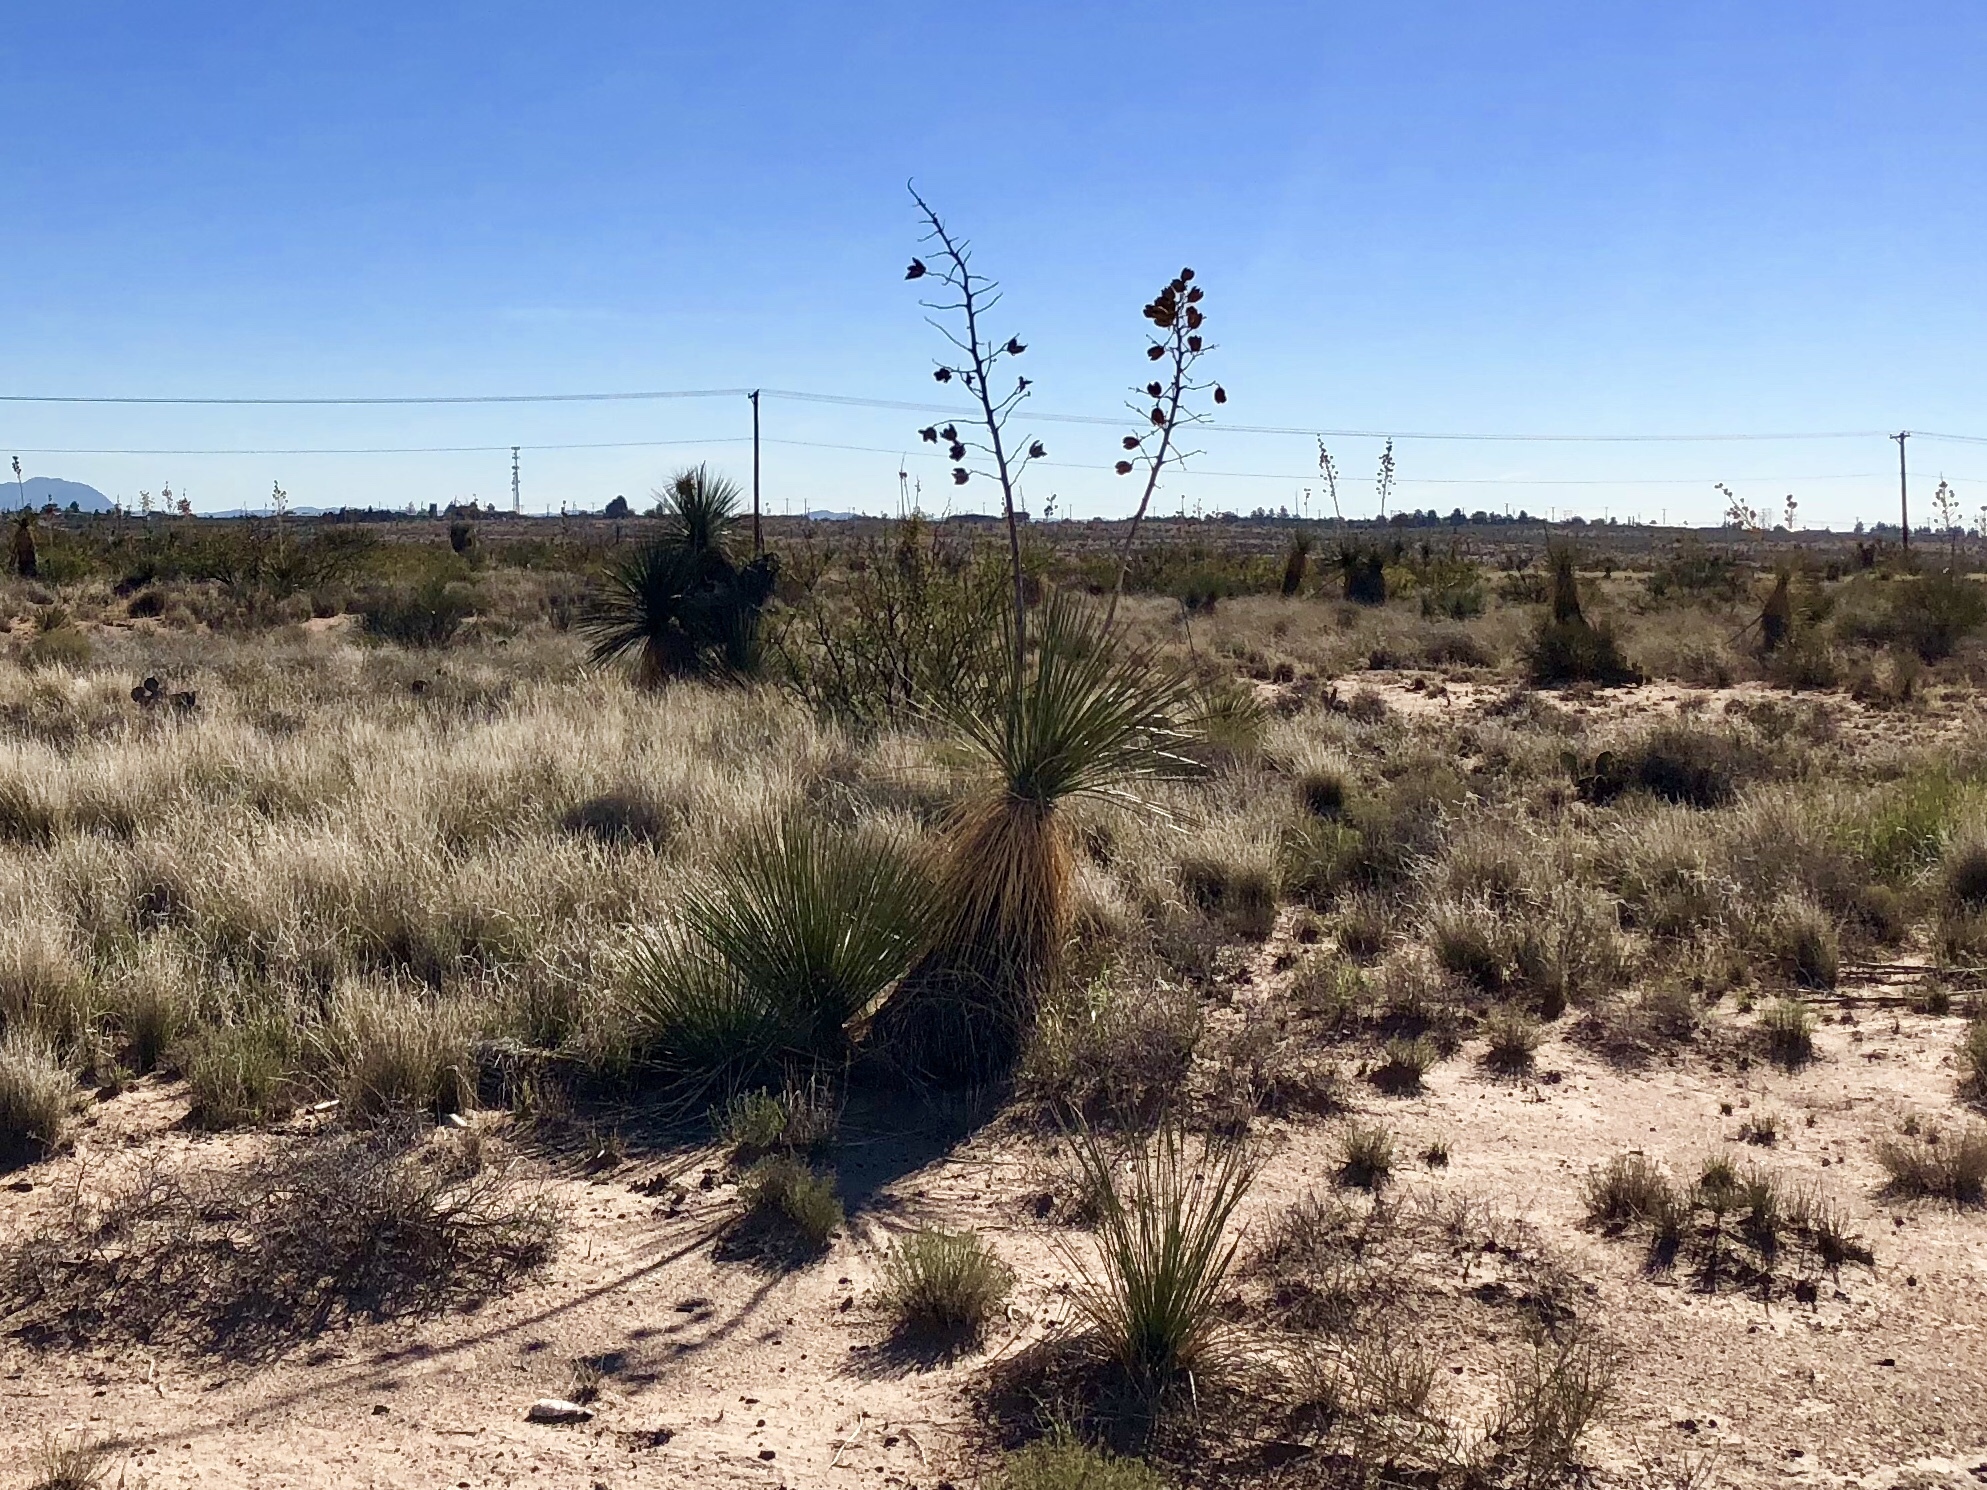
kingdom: Plantae
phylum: Tracheophyta
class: Liliopsida
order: Asparagales
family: Asparagaceae
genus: Yucca
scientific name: Yucca elata
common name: Palmella
